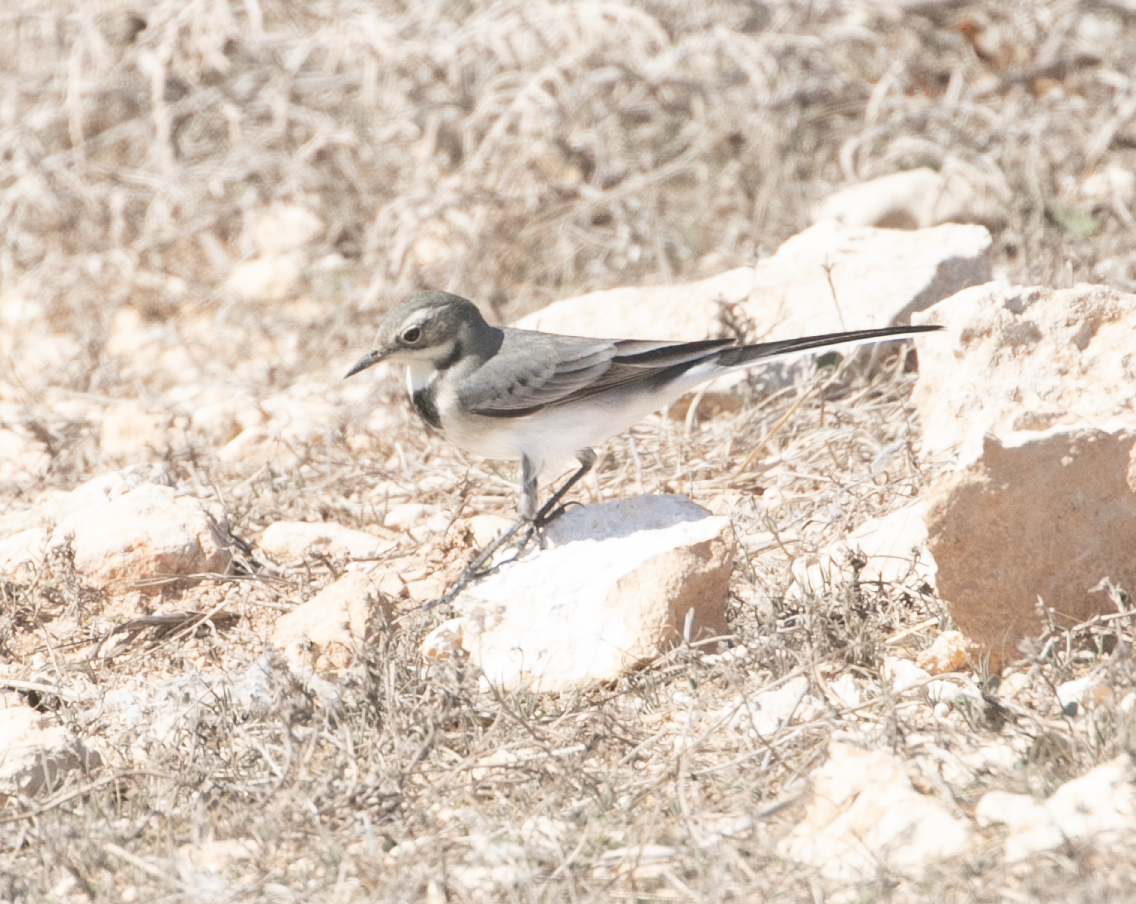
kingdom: Animalia
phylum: Chordata
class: Aves
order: Passeriformes
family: Motacillidae
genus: Motacilla
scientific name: Motacilla alba
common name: White wagtail
